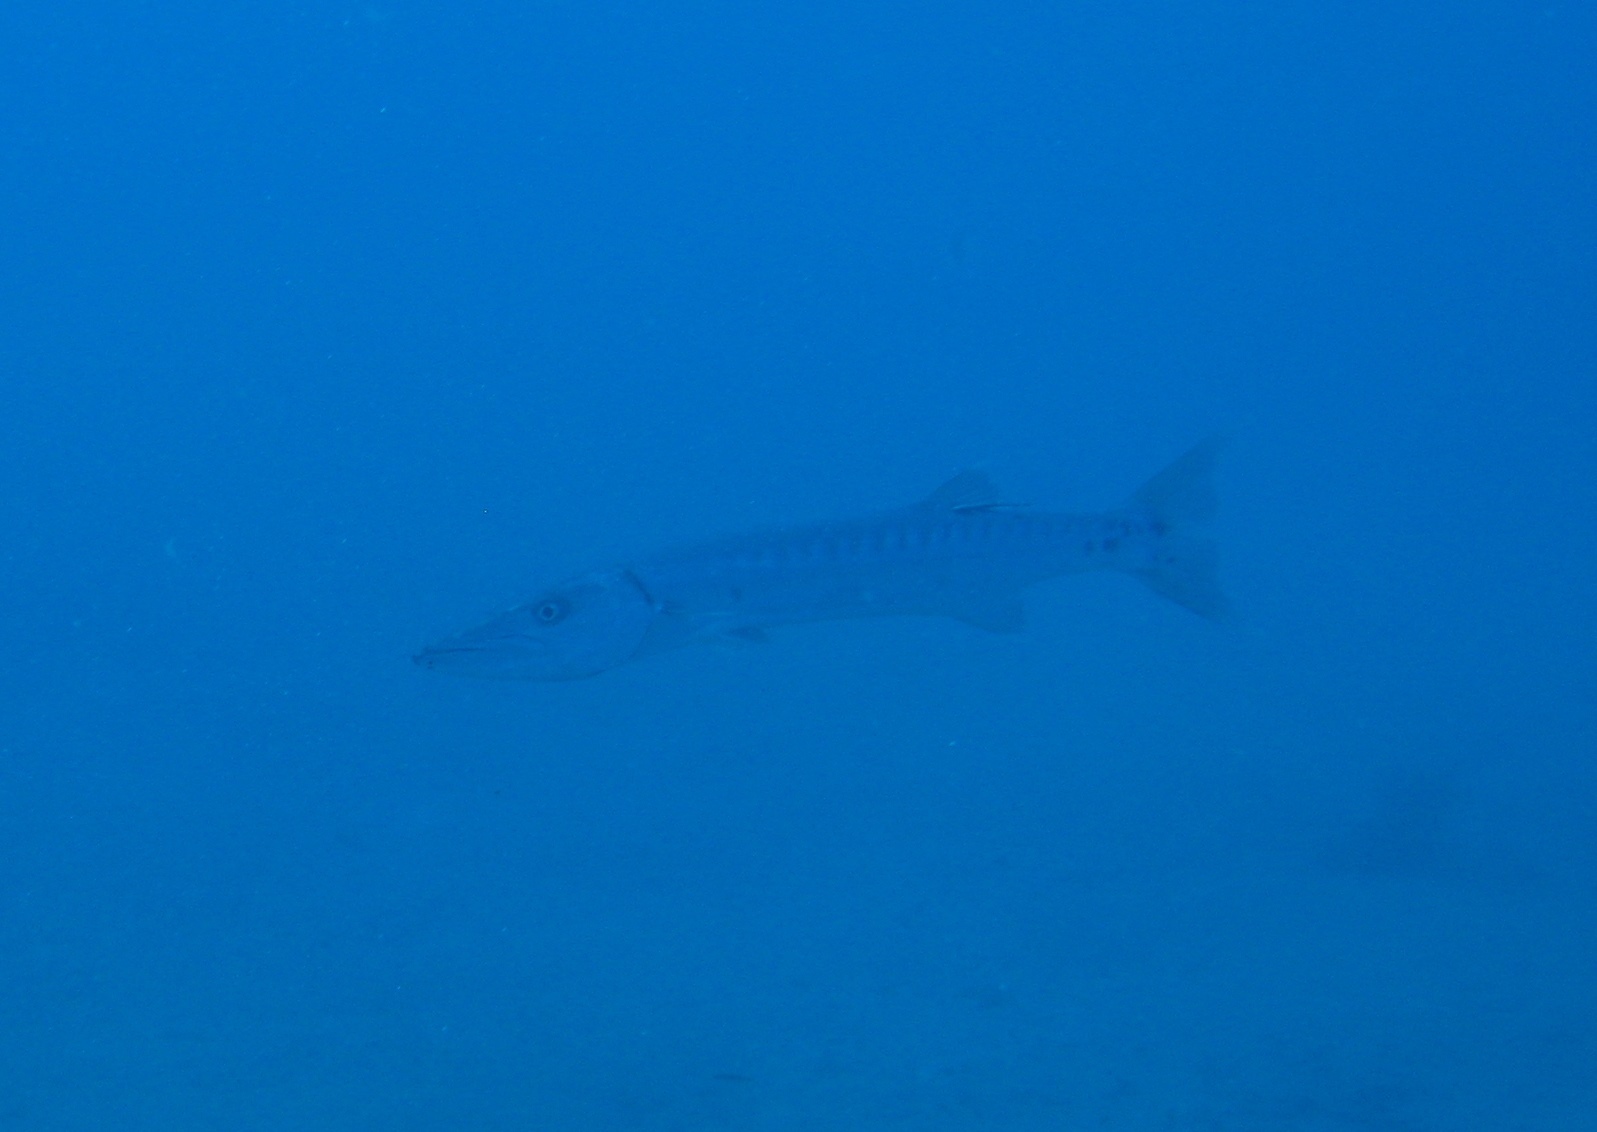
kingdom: Animalia
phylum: Chordata
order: Perciformes
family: Sphyraenidae
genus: Sphyraena
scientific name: Sphyraena barracuda
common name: Great barracuda
